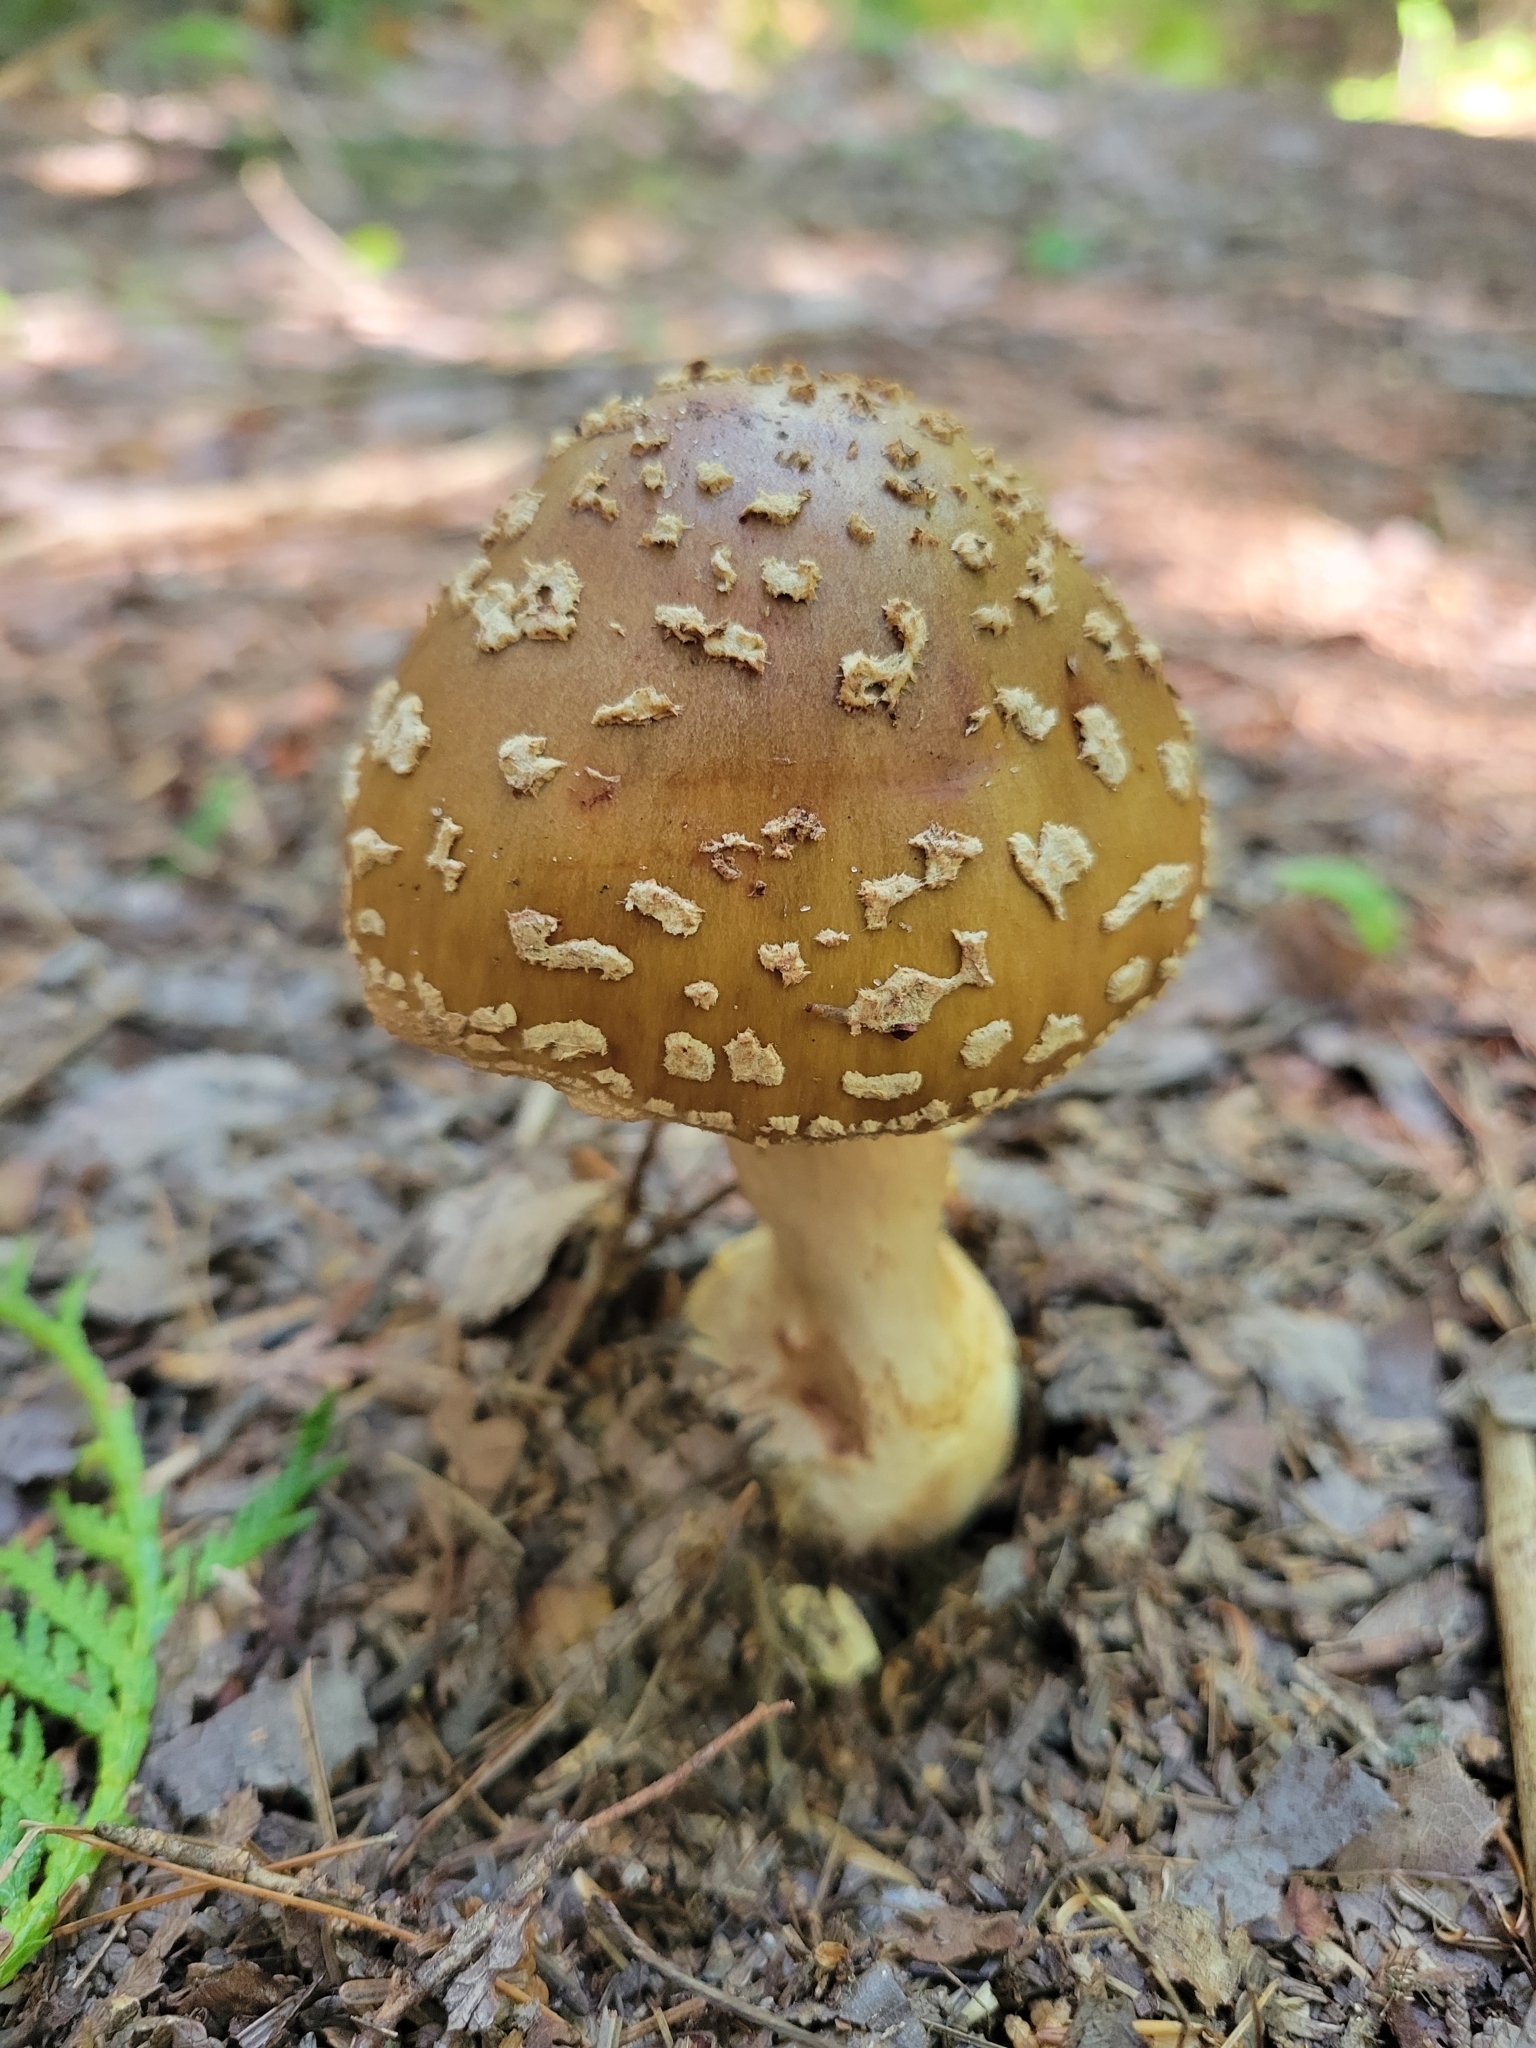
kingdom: Fungi
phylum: Basidiomycota
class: Agaricomycetes
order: Agaricales
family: Amanitaceae
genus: Amanita
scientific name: Amanita brunnescens
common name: Brown american star-footed amanita
